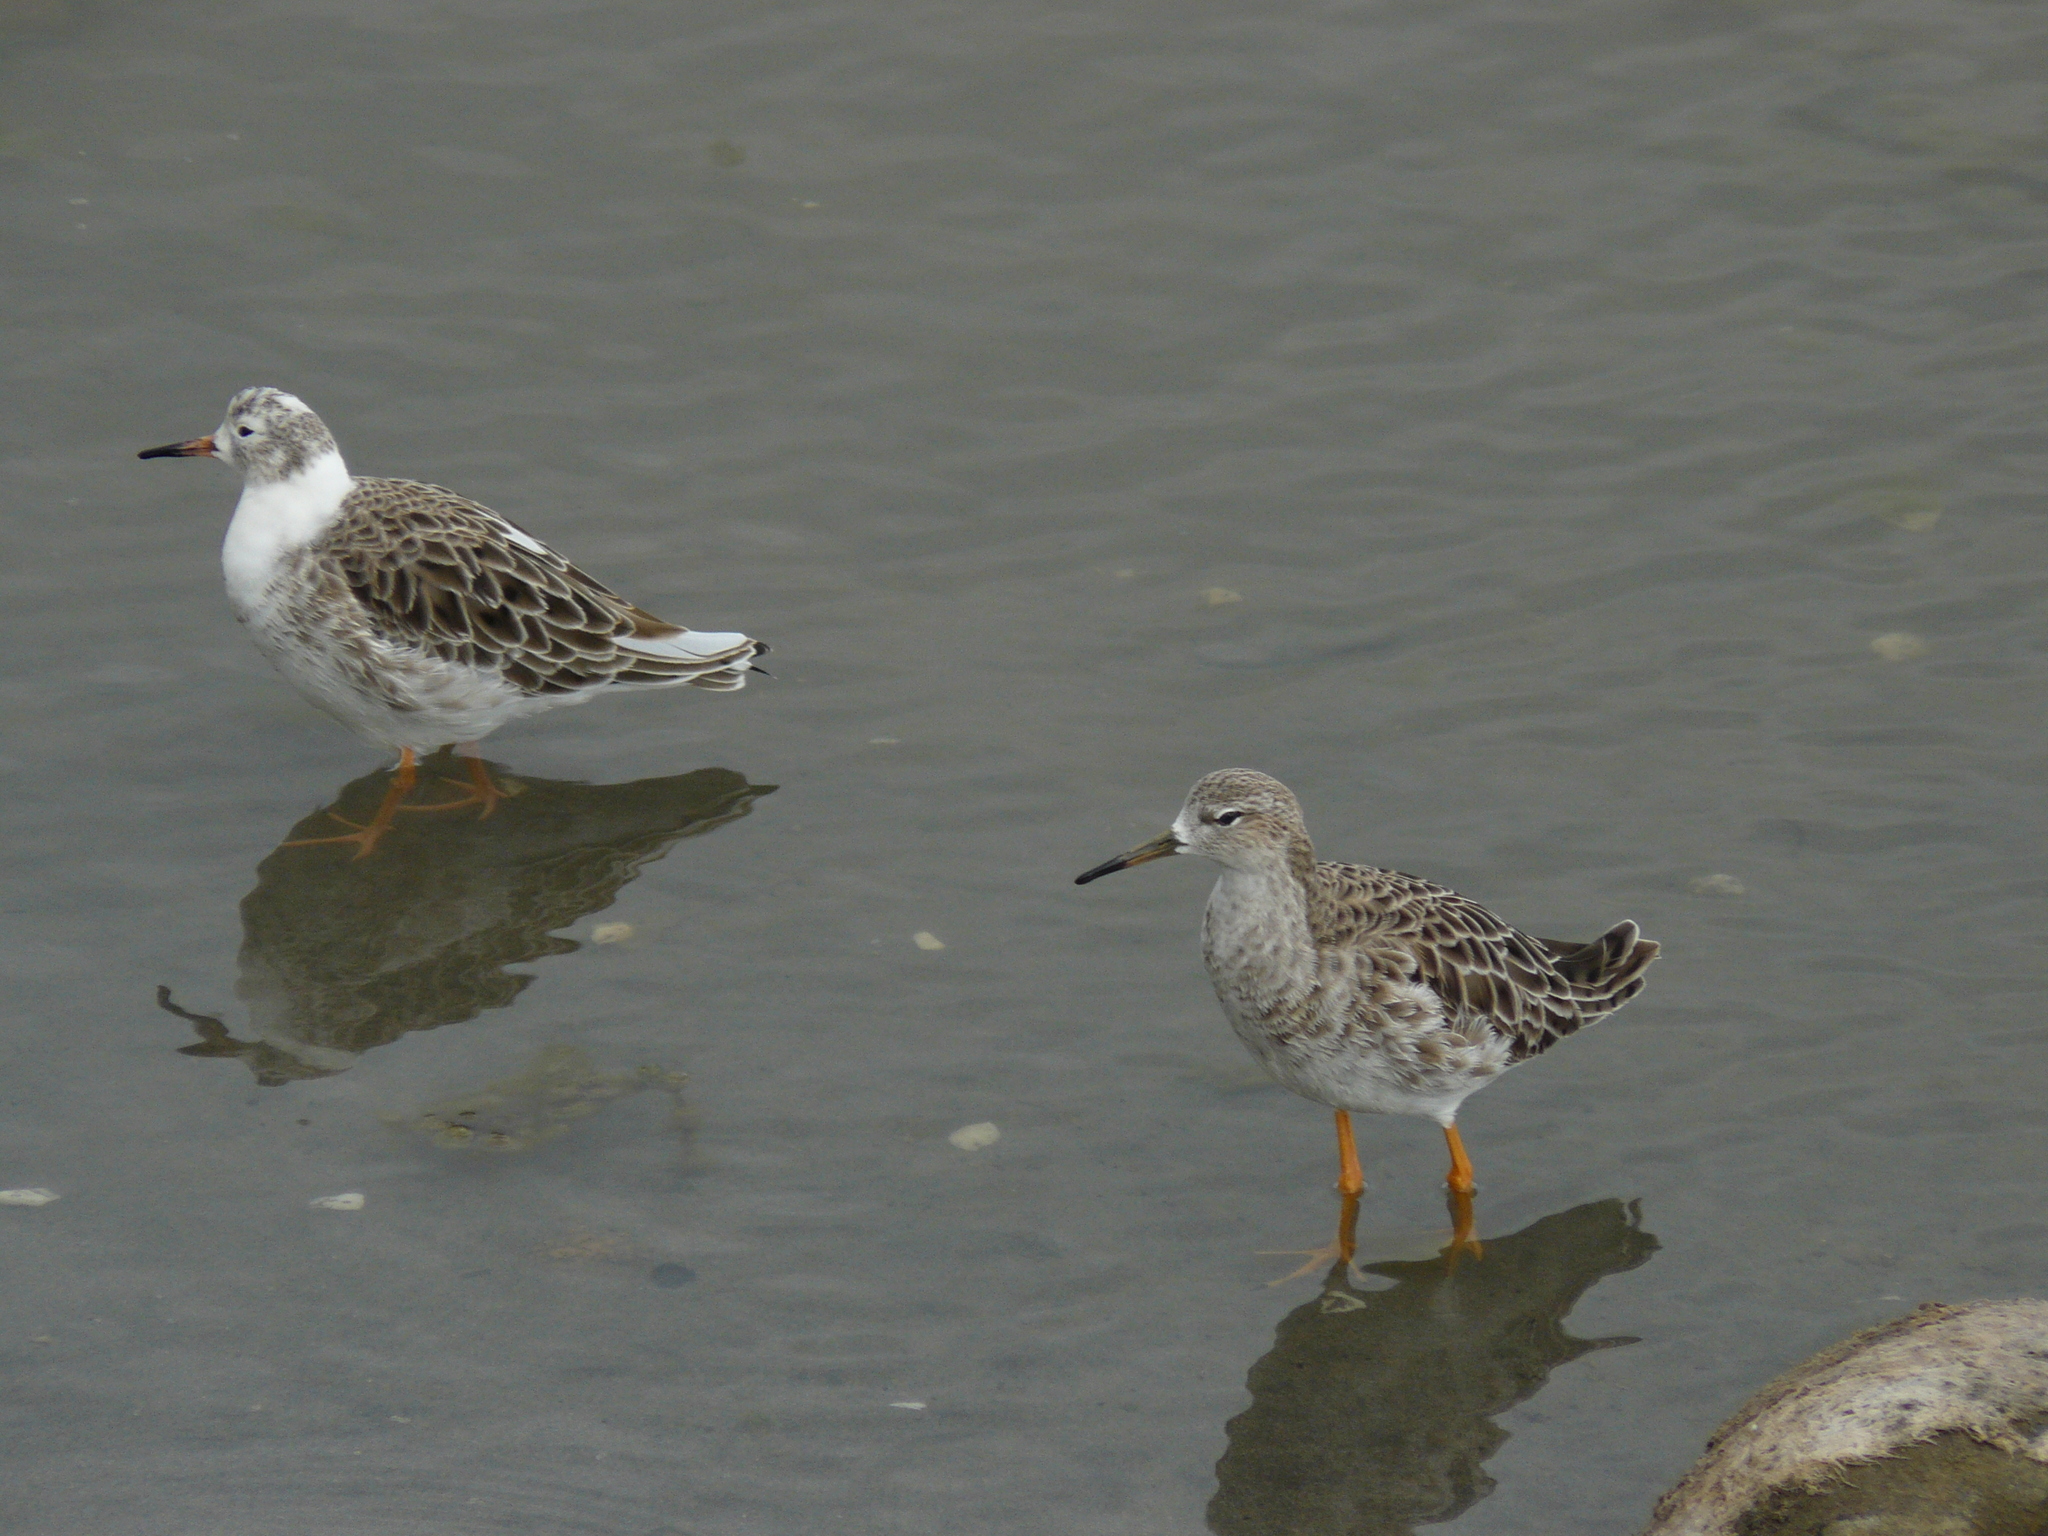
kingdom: Animalia
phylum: Chordata
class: Aves
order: Charadriiformes
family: Scolopacidae
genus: Calidris
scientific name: Calidris pugnax
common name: Ruff
